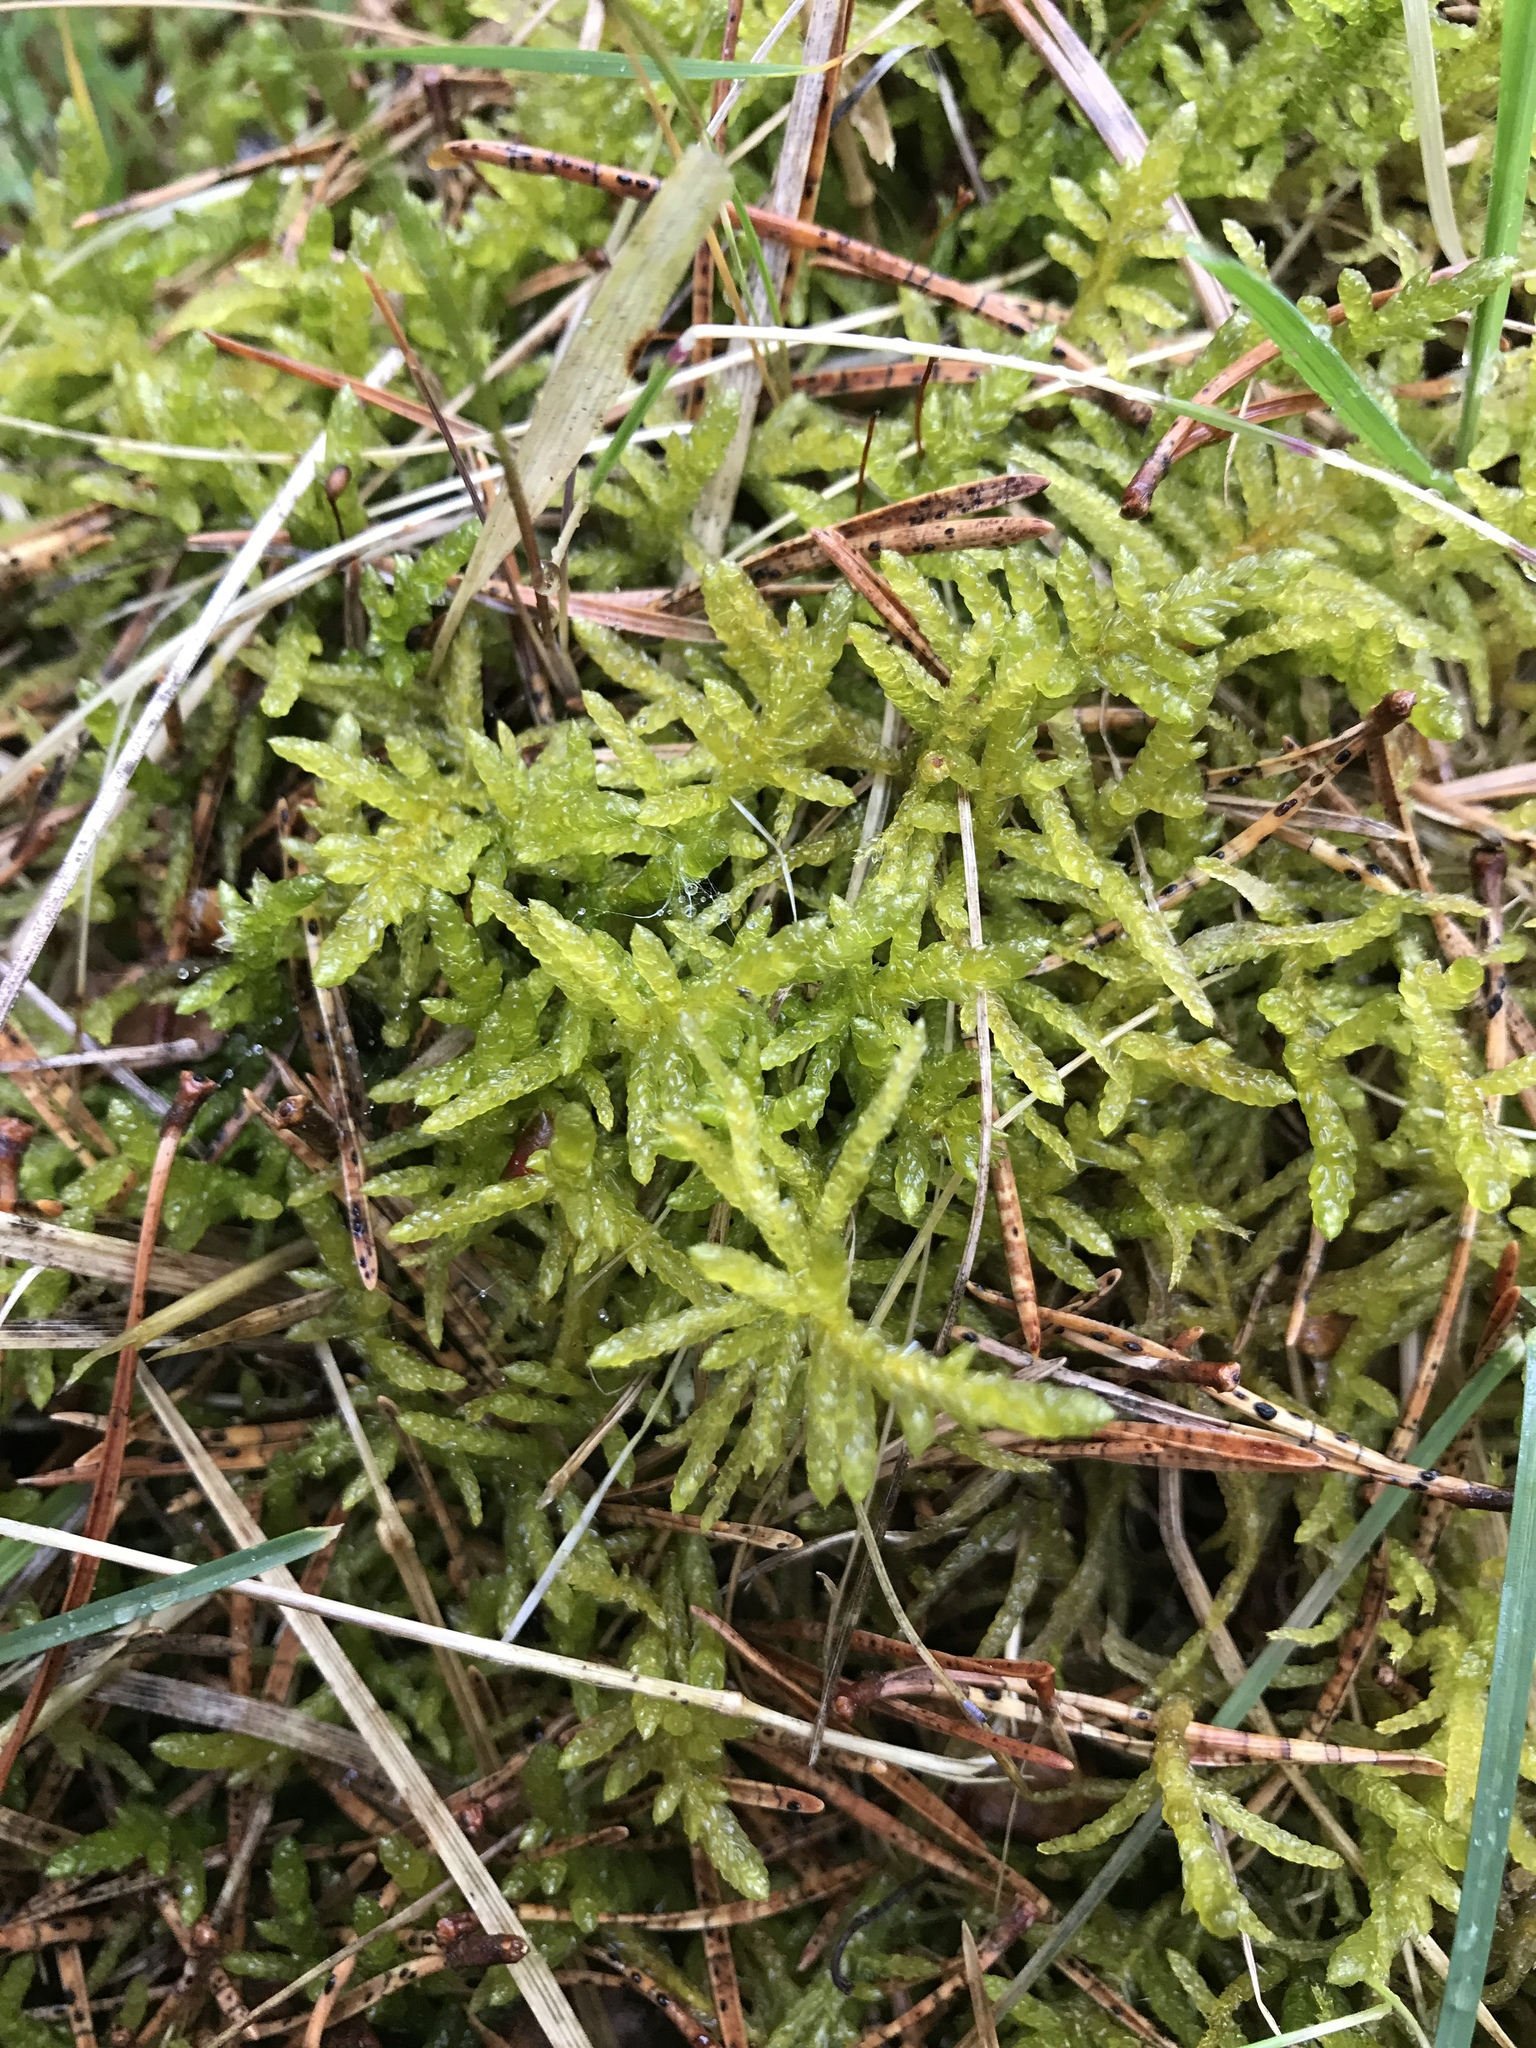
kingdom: Plantae
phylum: Bryophyta
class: Bryopsida
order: Hypnales
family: Brachytheciaceae
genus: Pseudoscleropodium
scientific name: Pseudoscleropodium purum
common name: Neat feather-moss
